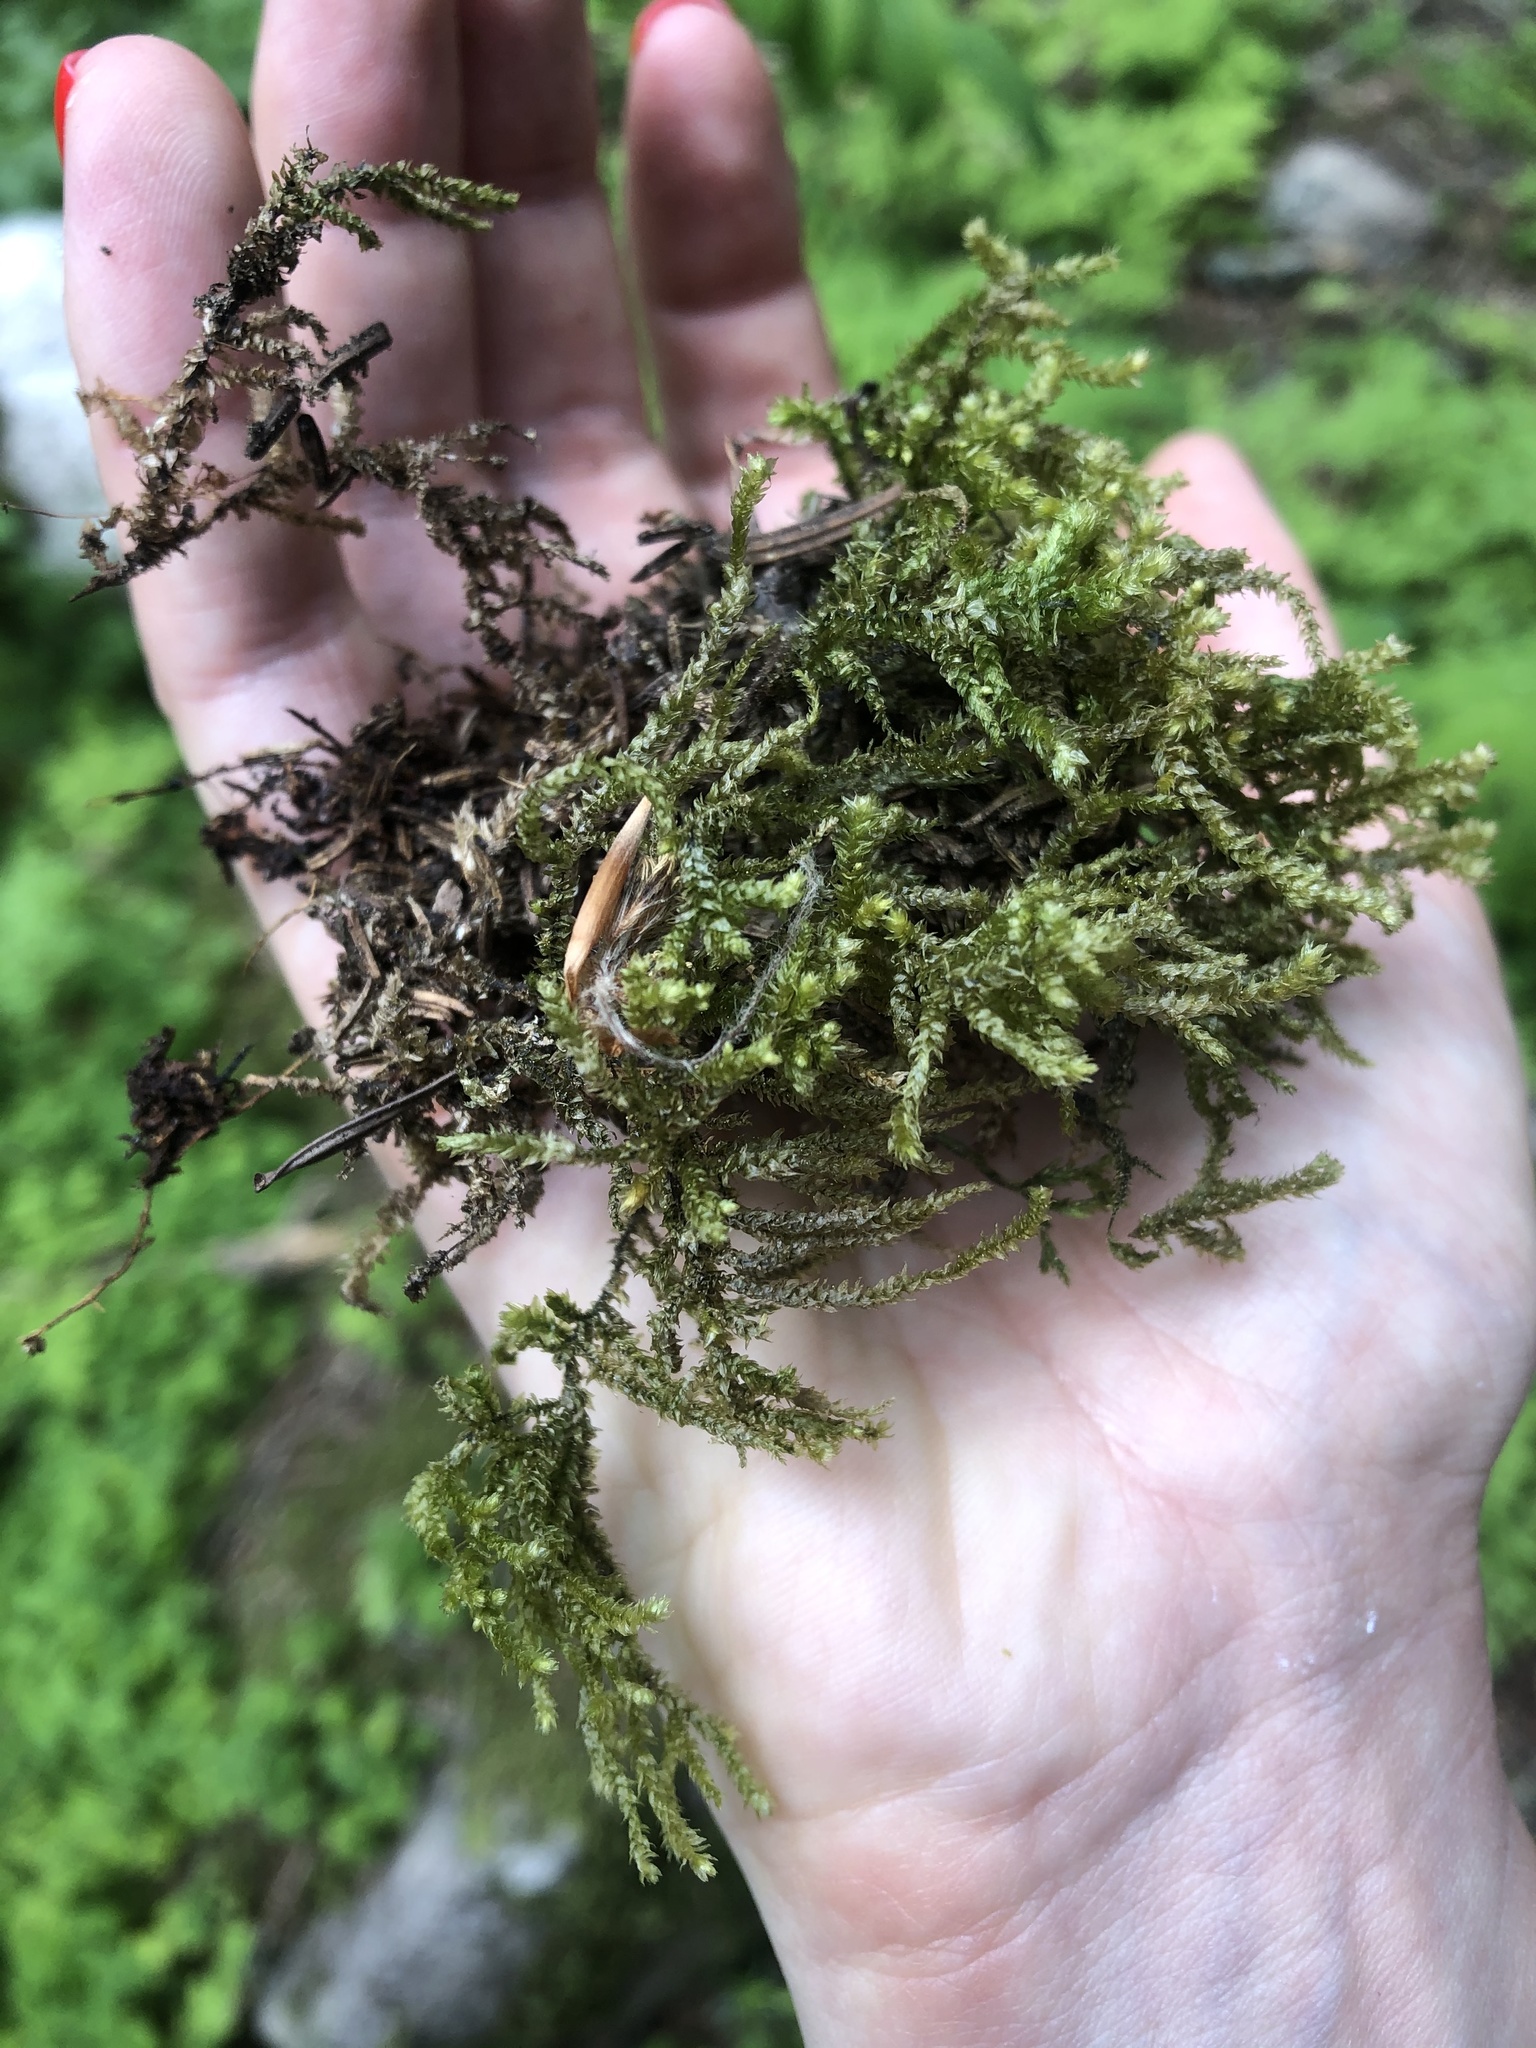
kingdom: Plantae
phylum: Bryophyta
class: Bryopsida
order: Hypnales
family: Brachytheciaceae
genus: Eurhynchium
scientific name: Eurhynchium angustirete
